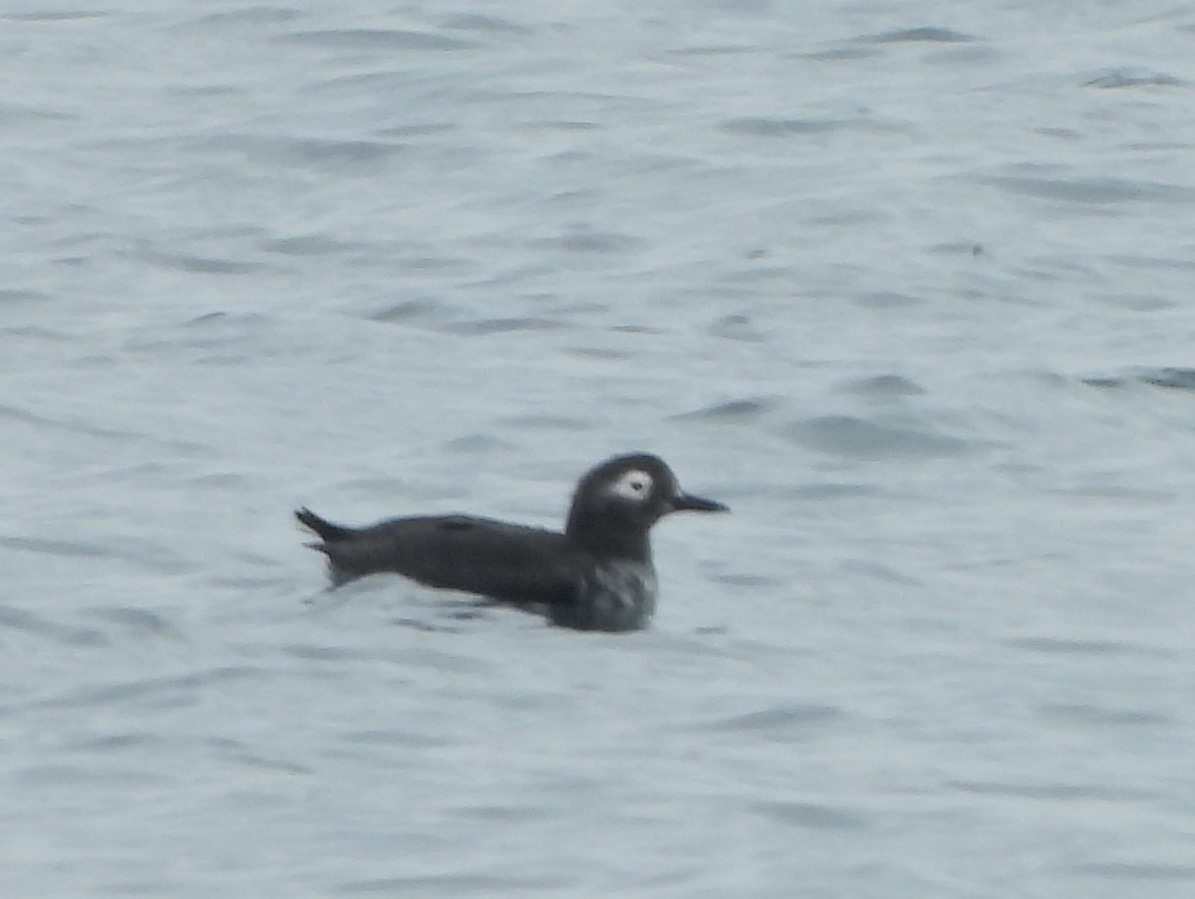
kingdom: Animalia
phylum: Chordata
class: Aves
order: Charadriiformes
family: Alcidae
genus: Cepphus
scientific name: Cepphus carbo
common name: Spectacled guillemot
